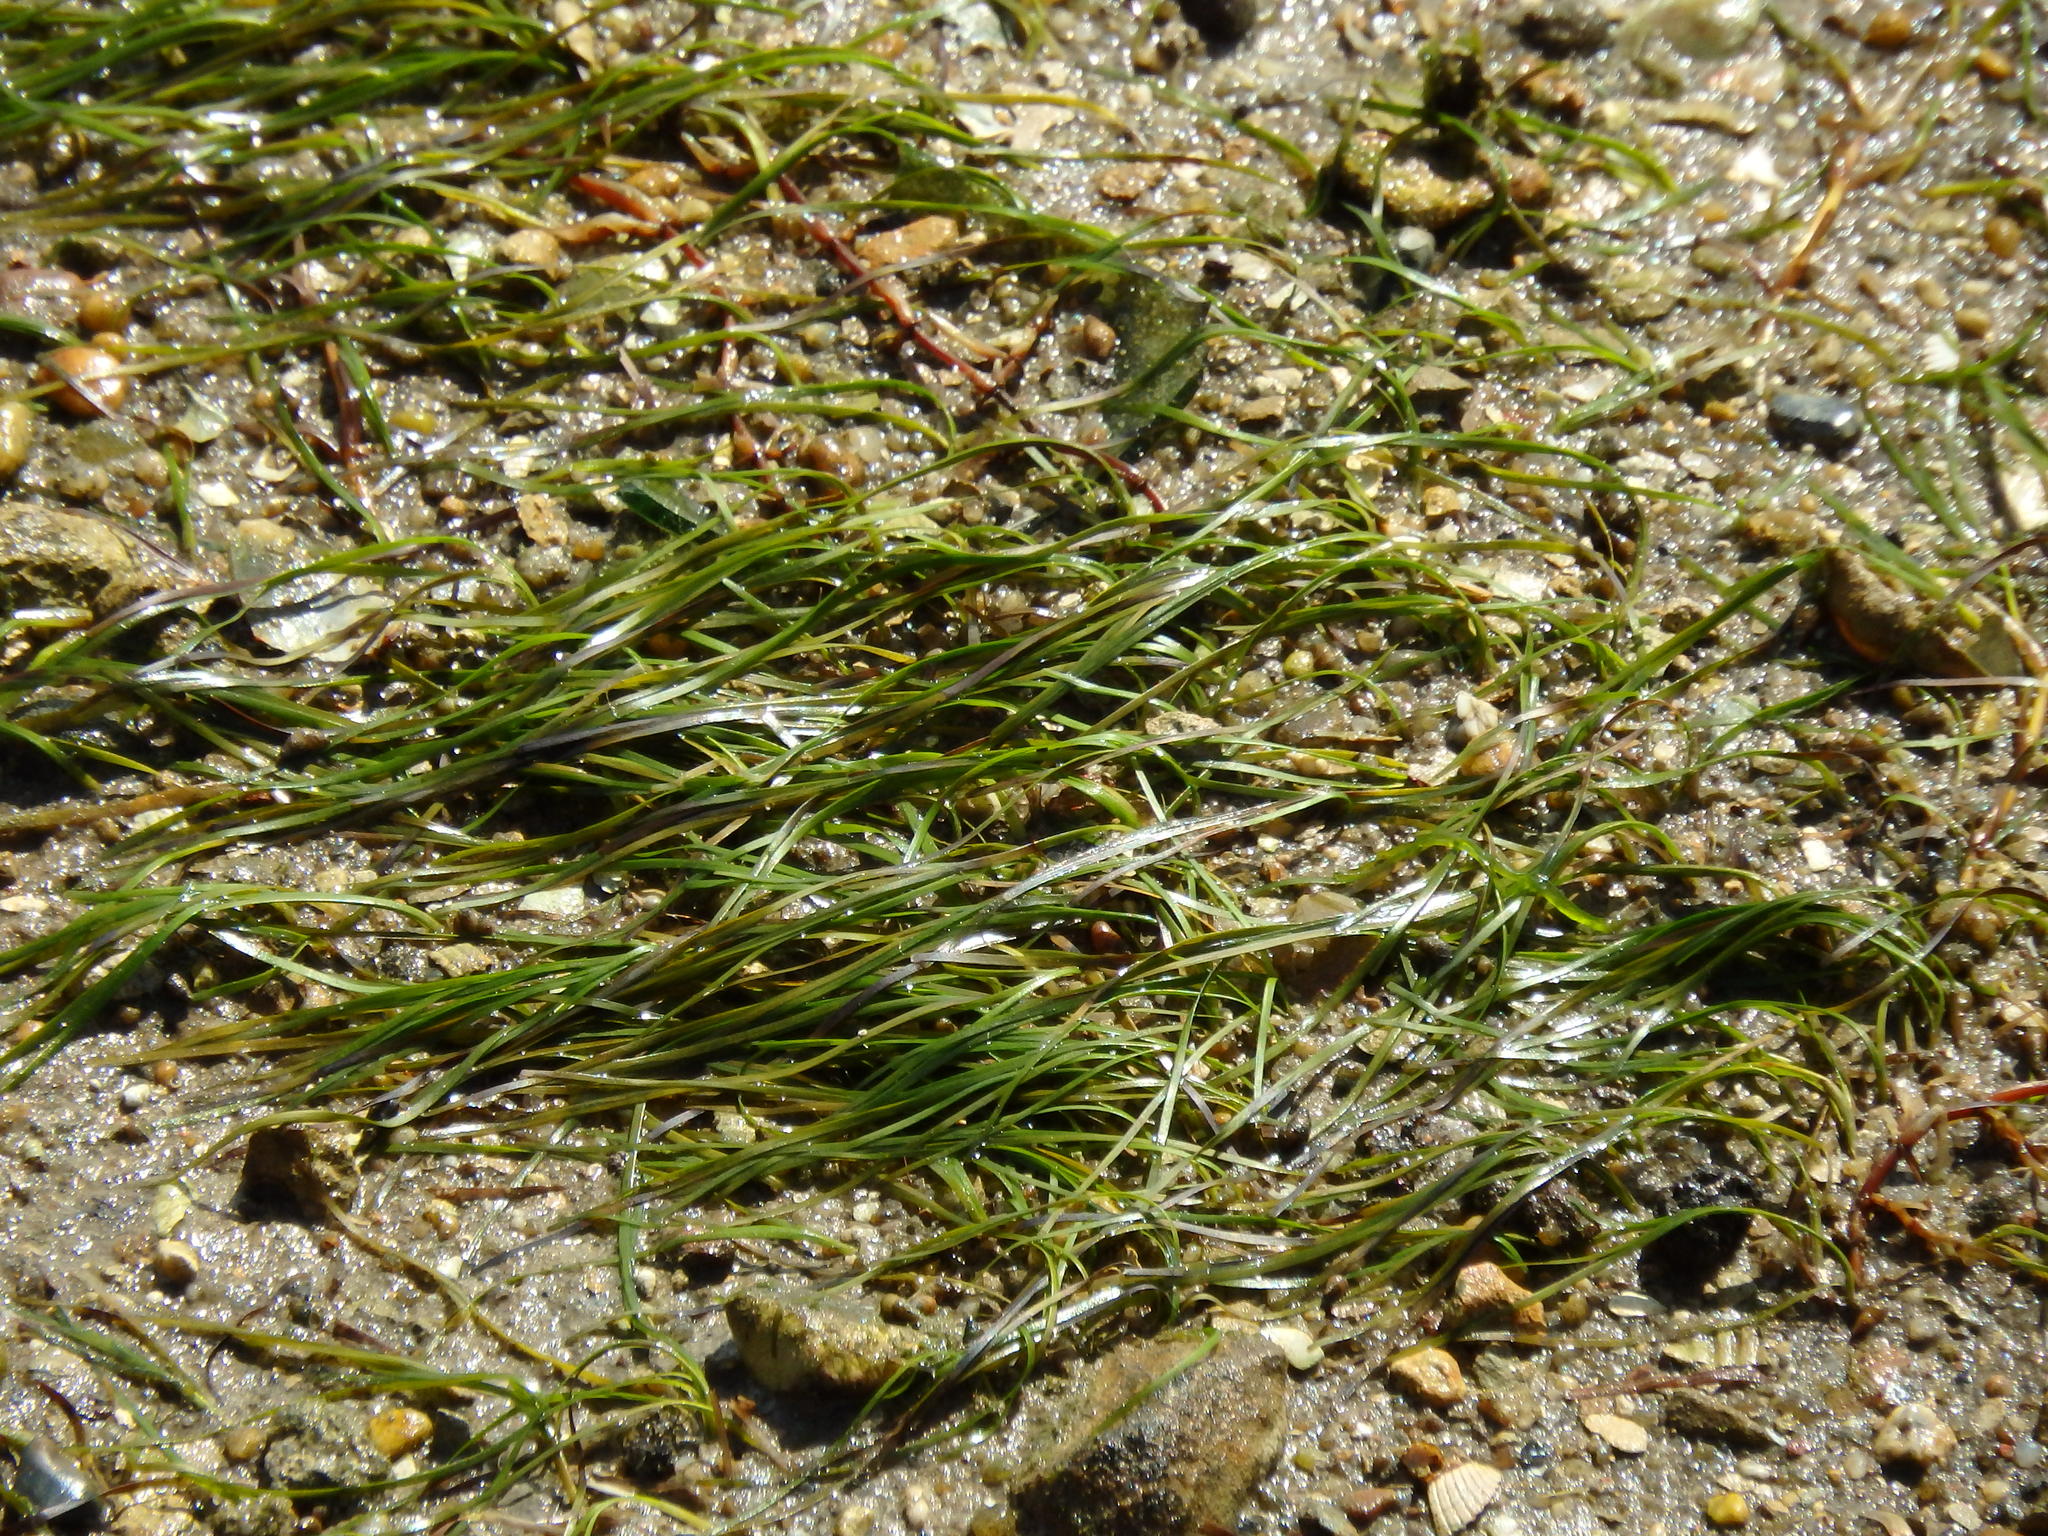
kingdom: Plantae
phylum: Tracheophyta
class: Liliopsida
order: Alismatales
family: Zosteraceae
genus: Zostera
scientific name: Zostera noltii
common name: Dwarf eelgrass
